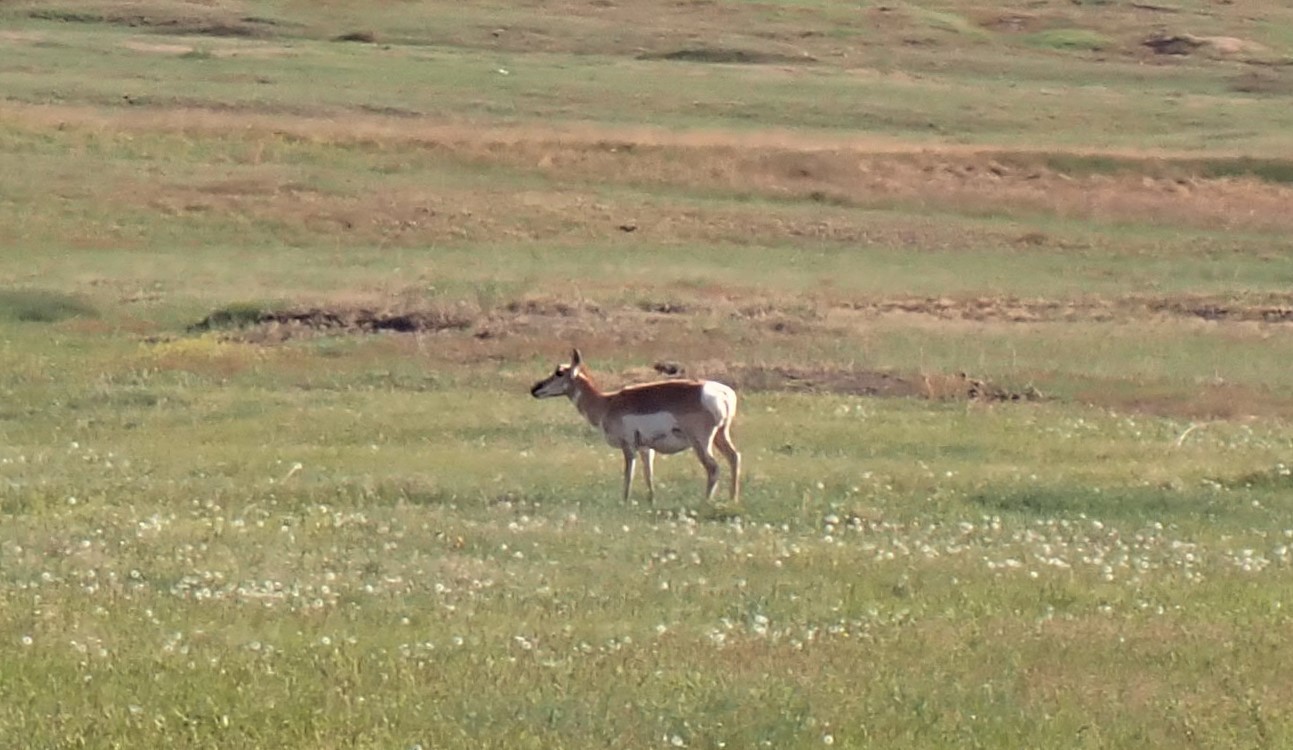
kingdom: Animalia
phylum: Chordata
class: Mammalia
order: Artiodactyla
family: Antilocapridae
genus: Antilocapra
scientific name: Antilocapra americana
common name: Pronghorn
